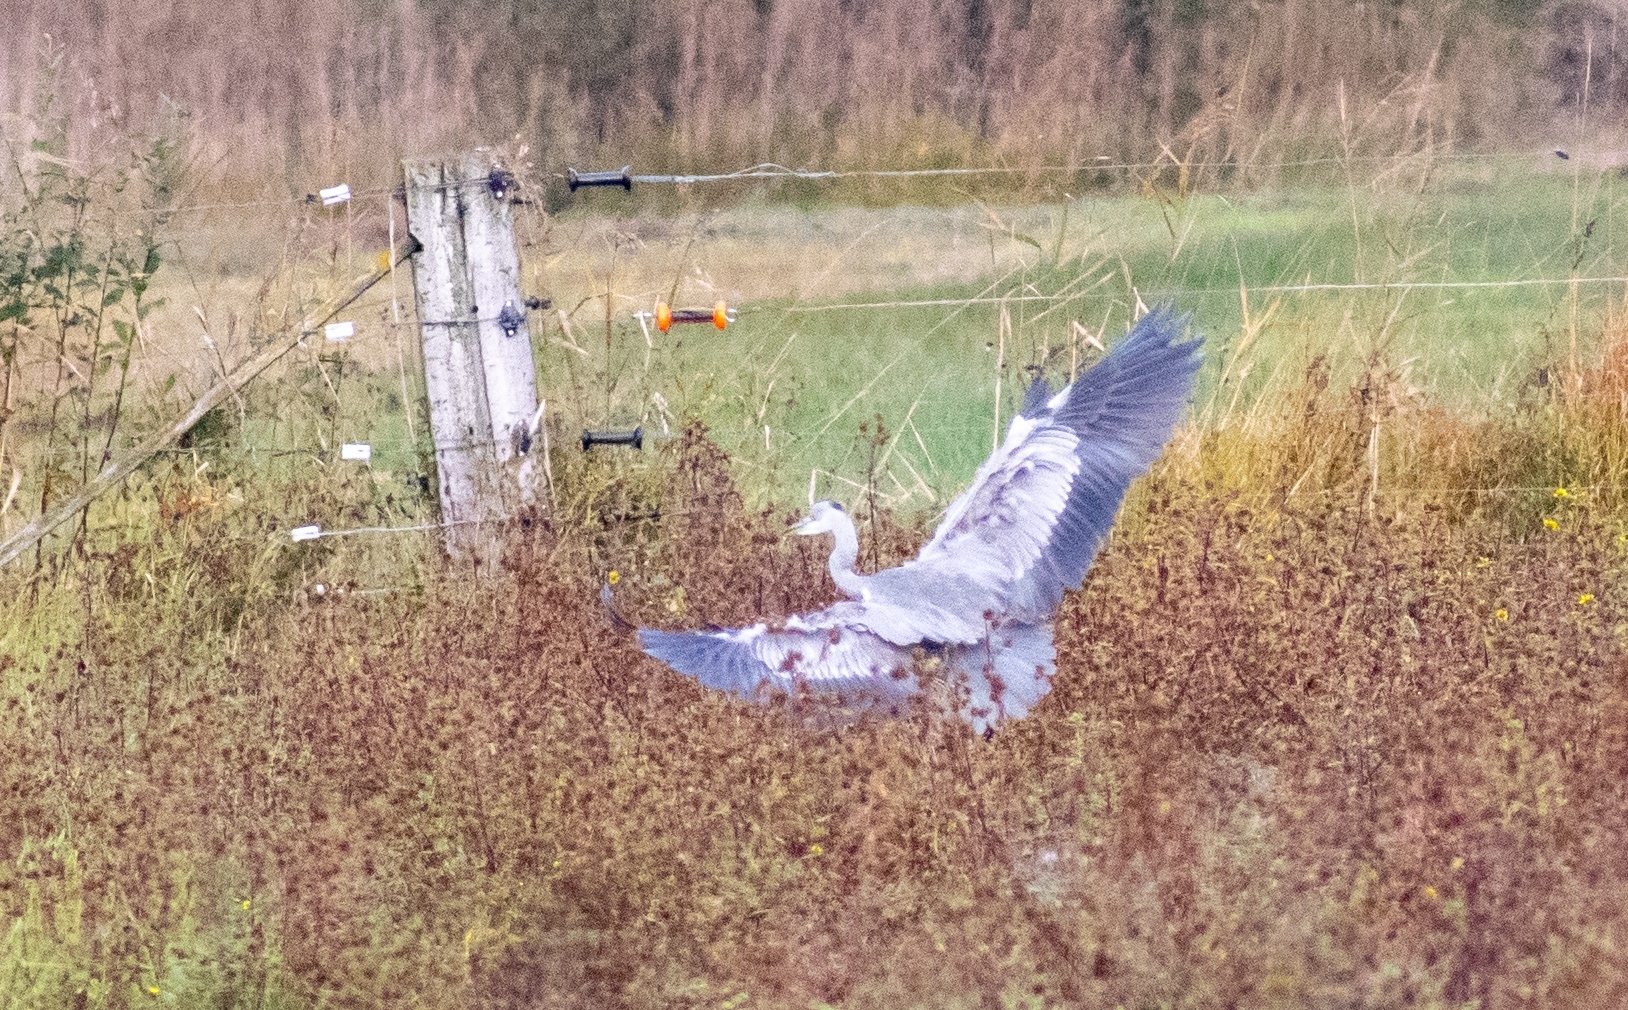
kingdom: Animalia
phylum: Chordata
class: Aves
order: Pelecaniformes
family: Ardeidae
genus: Ardea
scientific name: Ardea cinerea
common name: Grey heron
